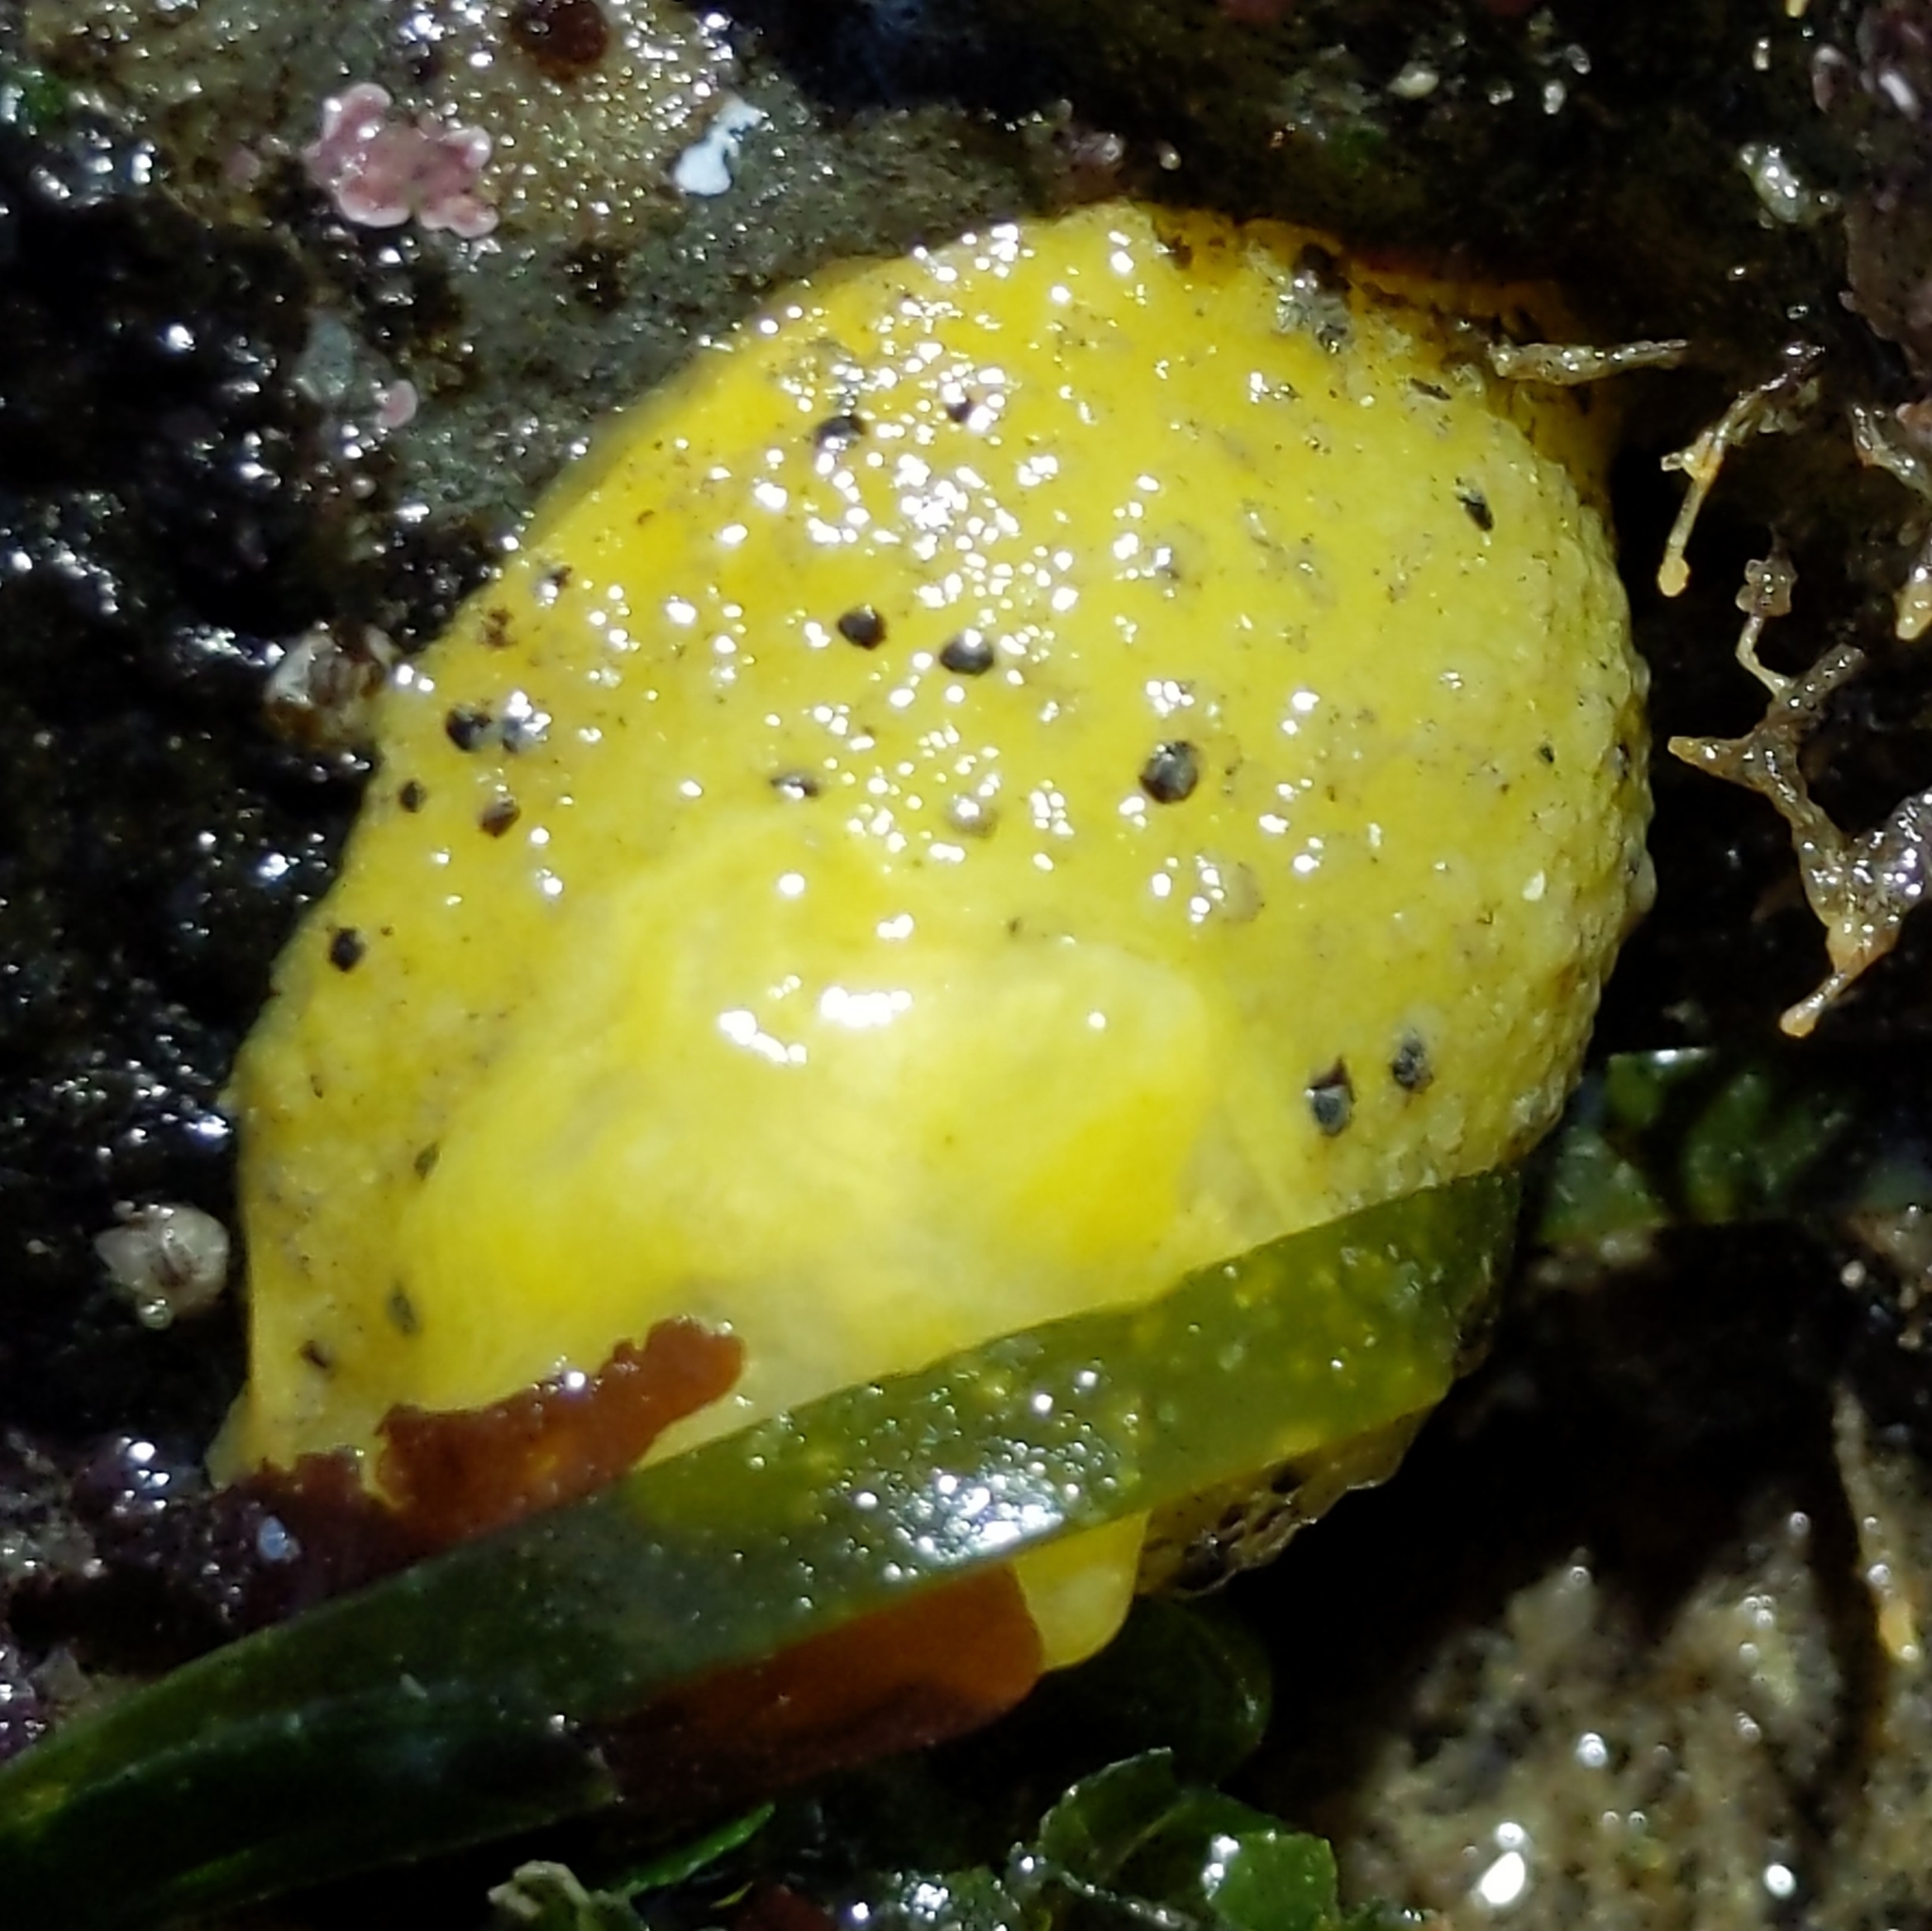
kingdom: Animalia
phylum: Mollusca
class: Gastropoda
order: Nudibranchia
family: Dorididae
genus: Doris
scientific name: Doris montereyensis
